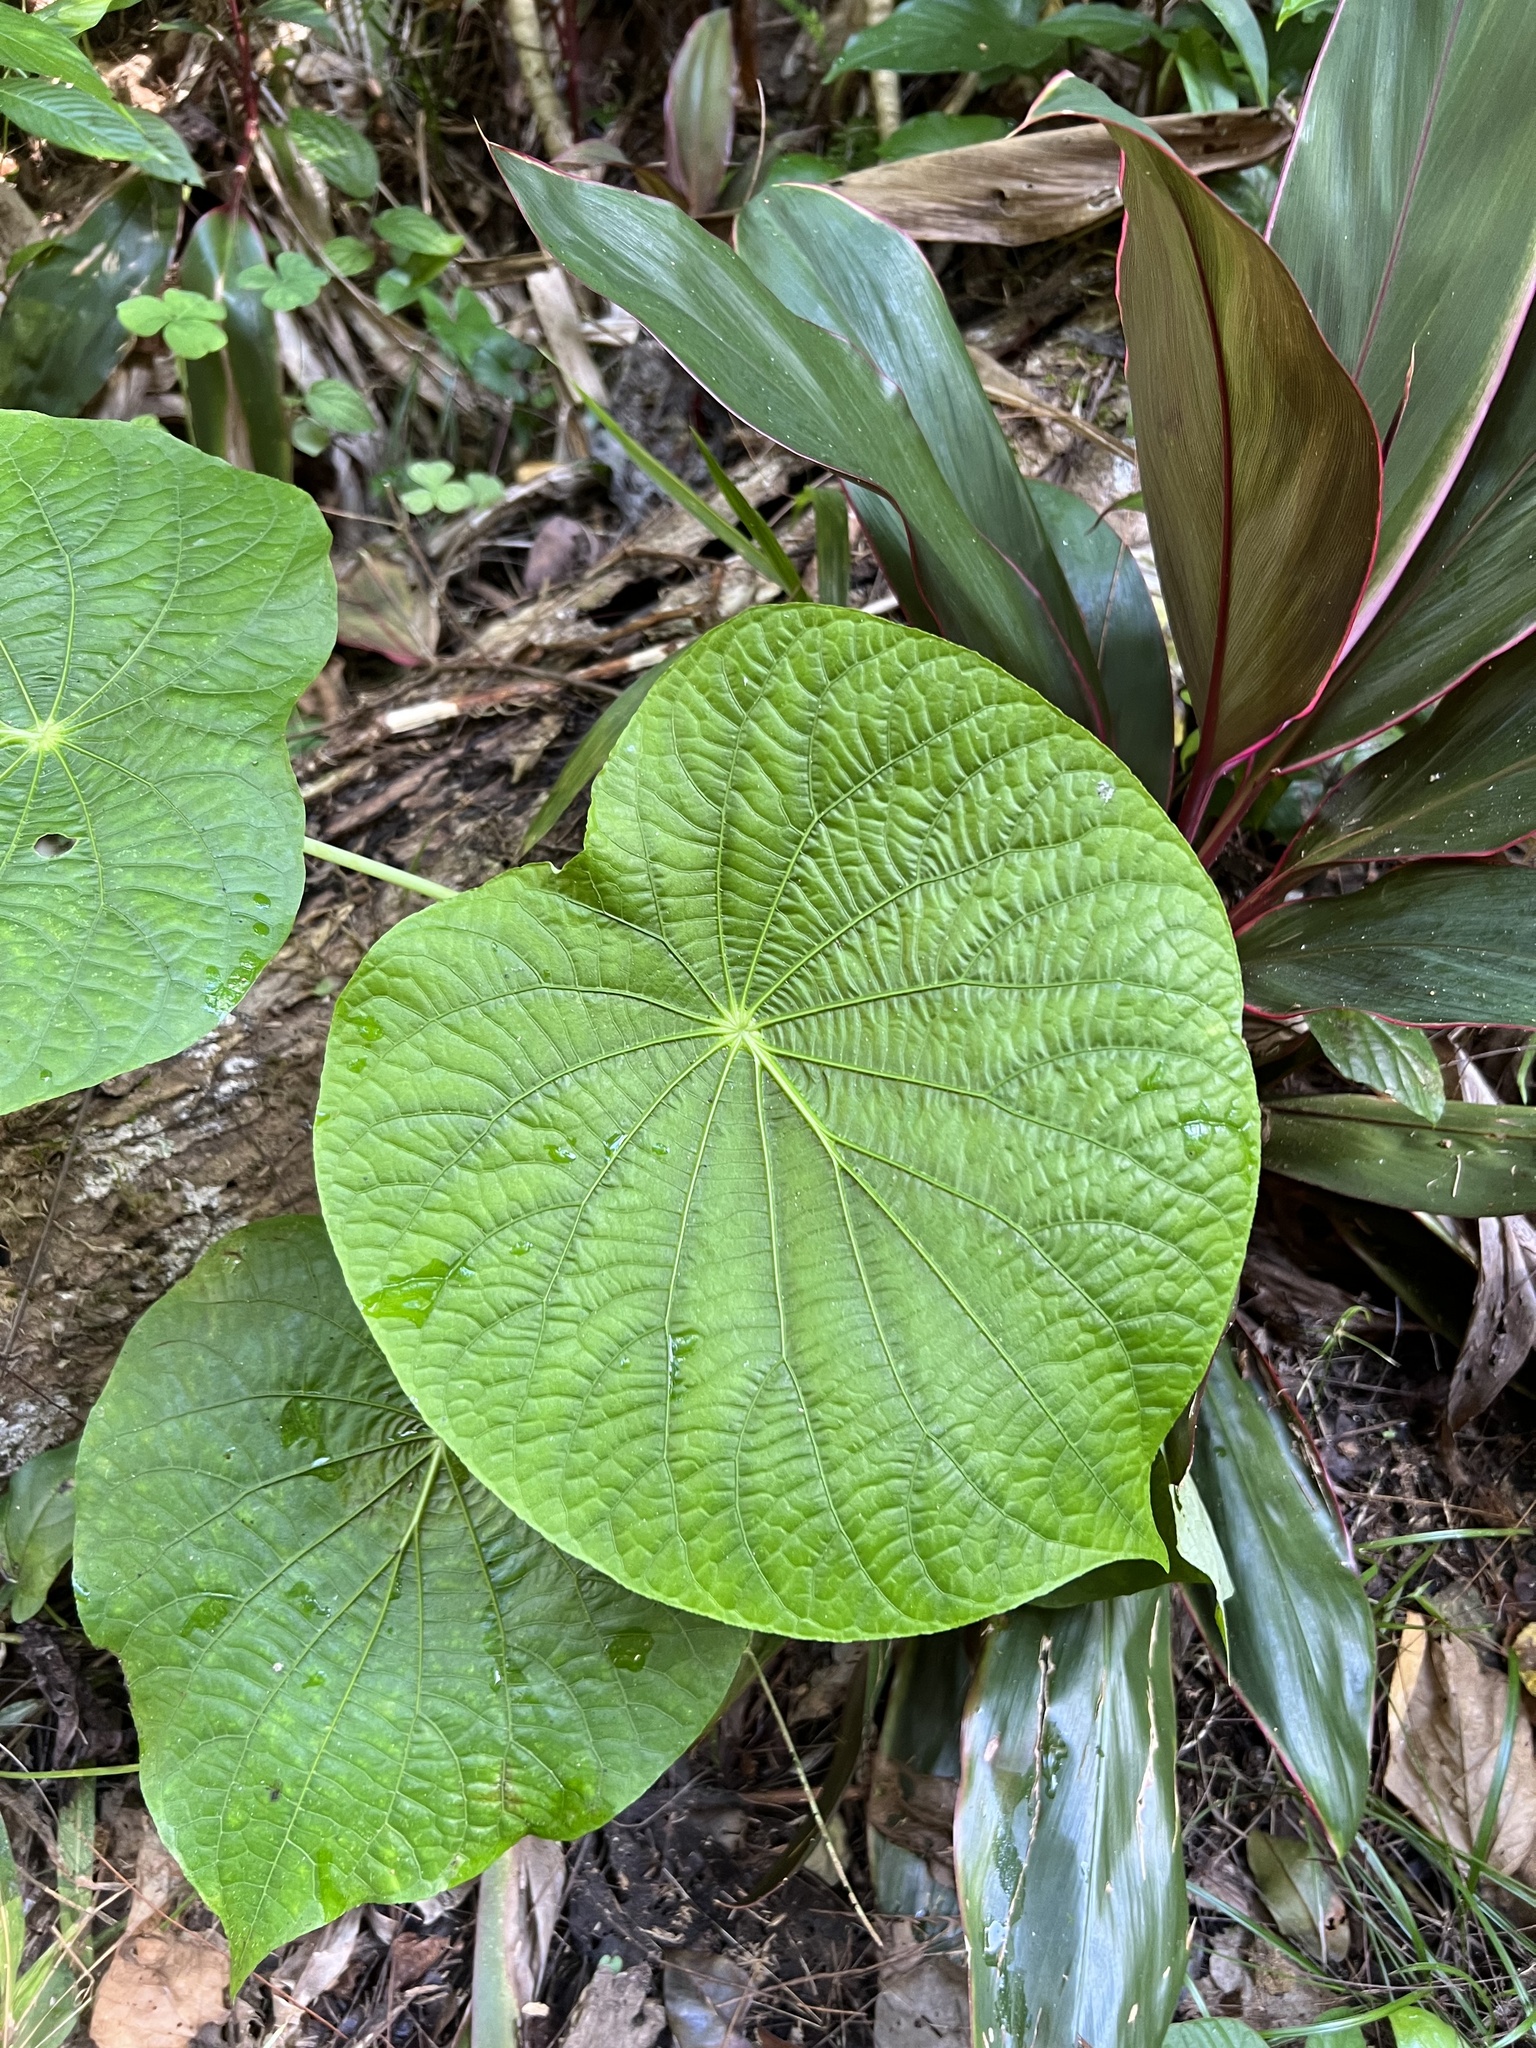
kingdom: Plantae
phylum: Tracheophyta
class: Magnoliopsida
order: Piperales
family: Piperaceae
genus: Piper
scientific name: Piper peltatum
